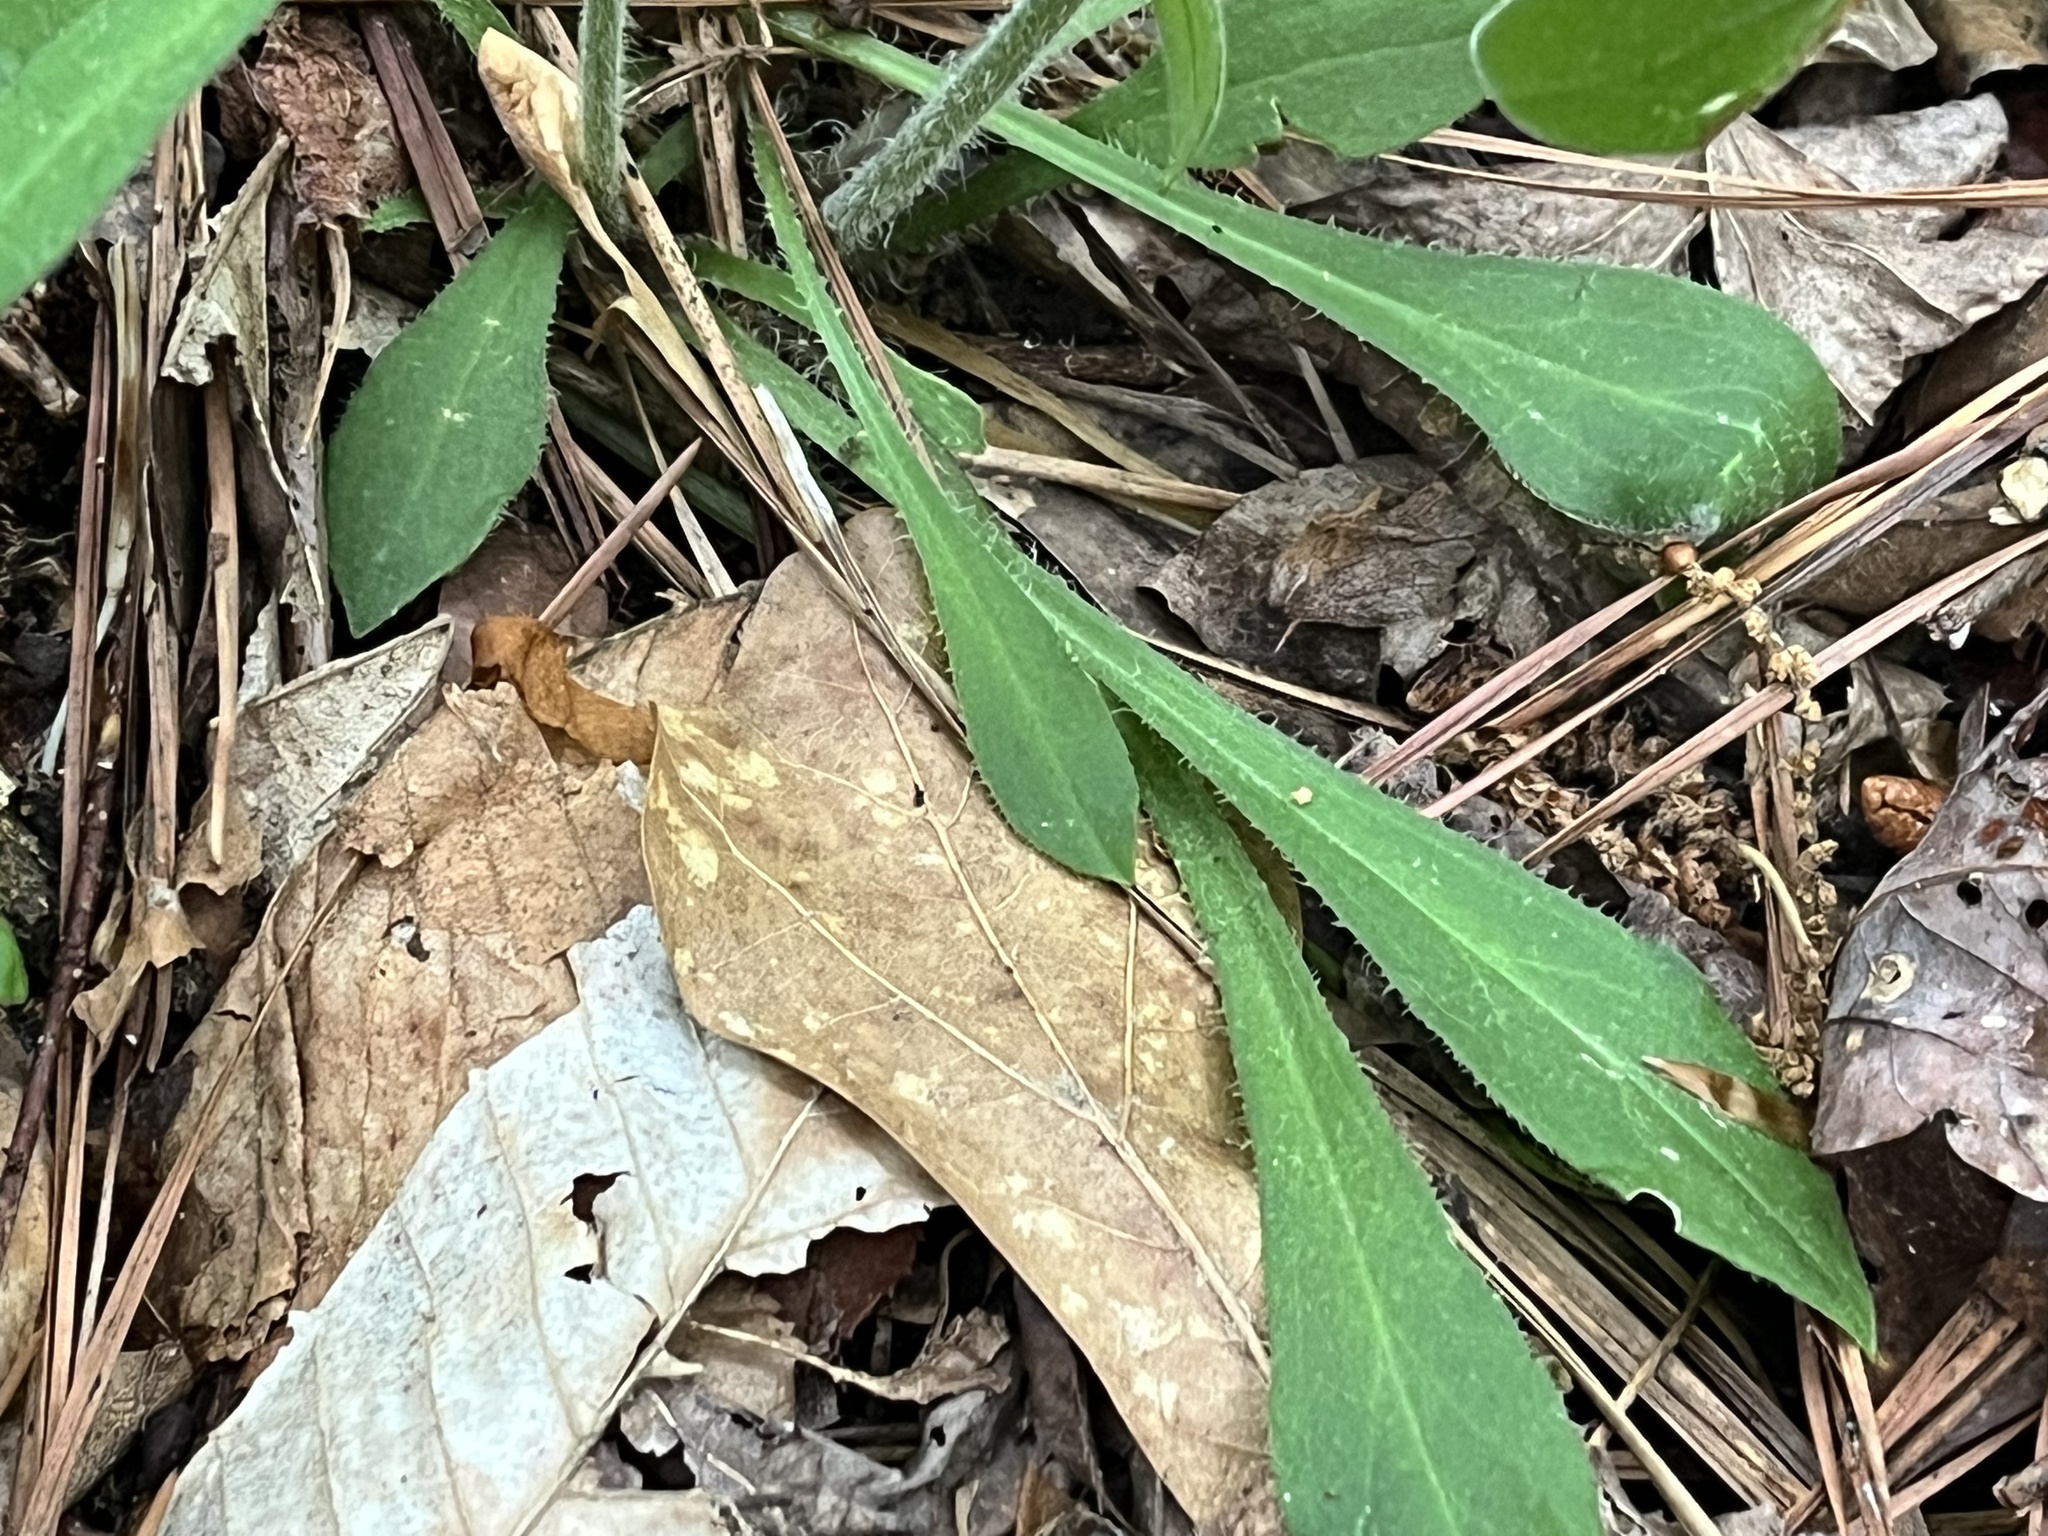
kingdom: Plantae
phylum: Tracheophyta
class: Magnoliopsida
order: Caryophyllales
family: Caryophyllaceae
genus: Silene
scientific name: Silene virginica
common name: Fire-pink
